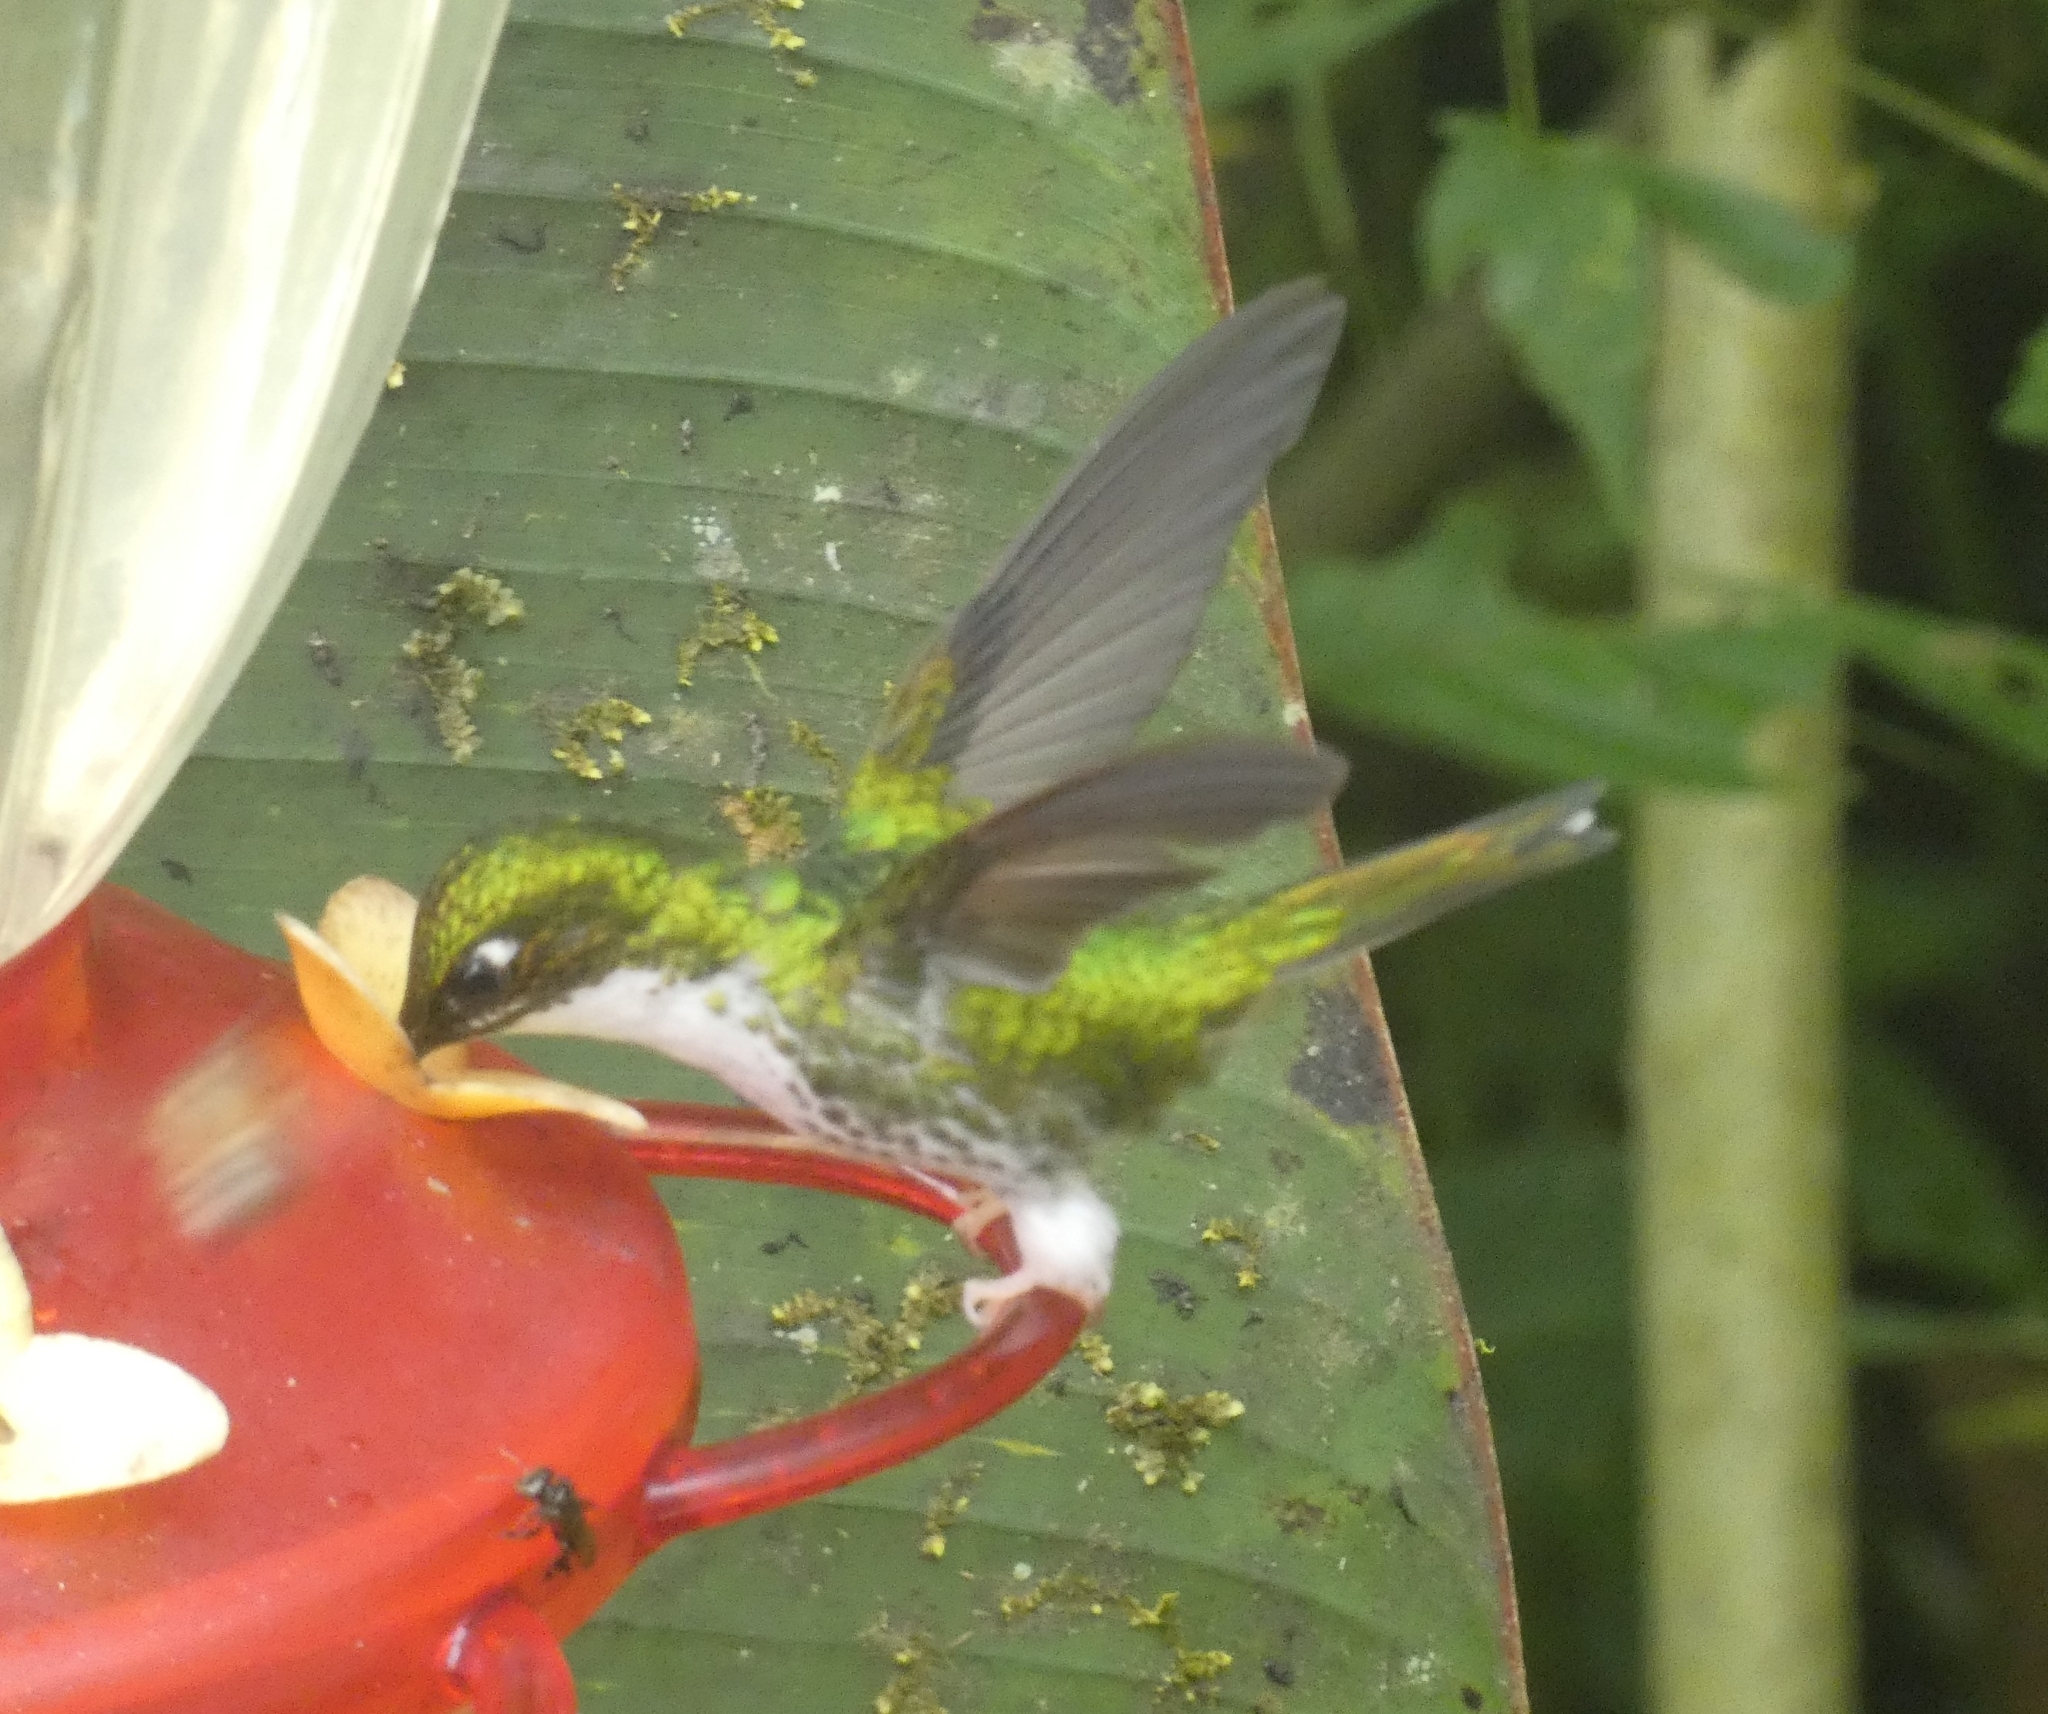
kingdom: Animalia
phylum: Chordata
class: Aves
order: Apodiformes
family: Trochilidae
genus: Ocreatus
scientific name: Ocreatus underwoodii
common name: Booted racket-tail
